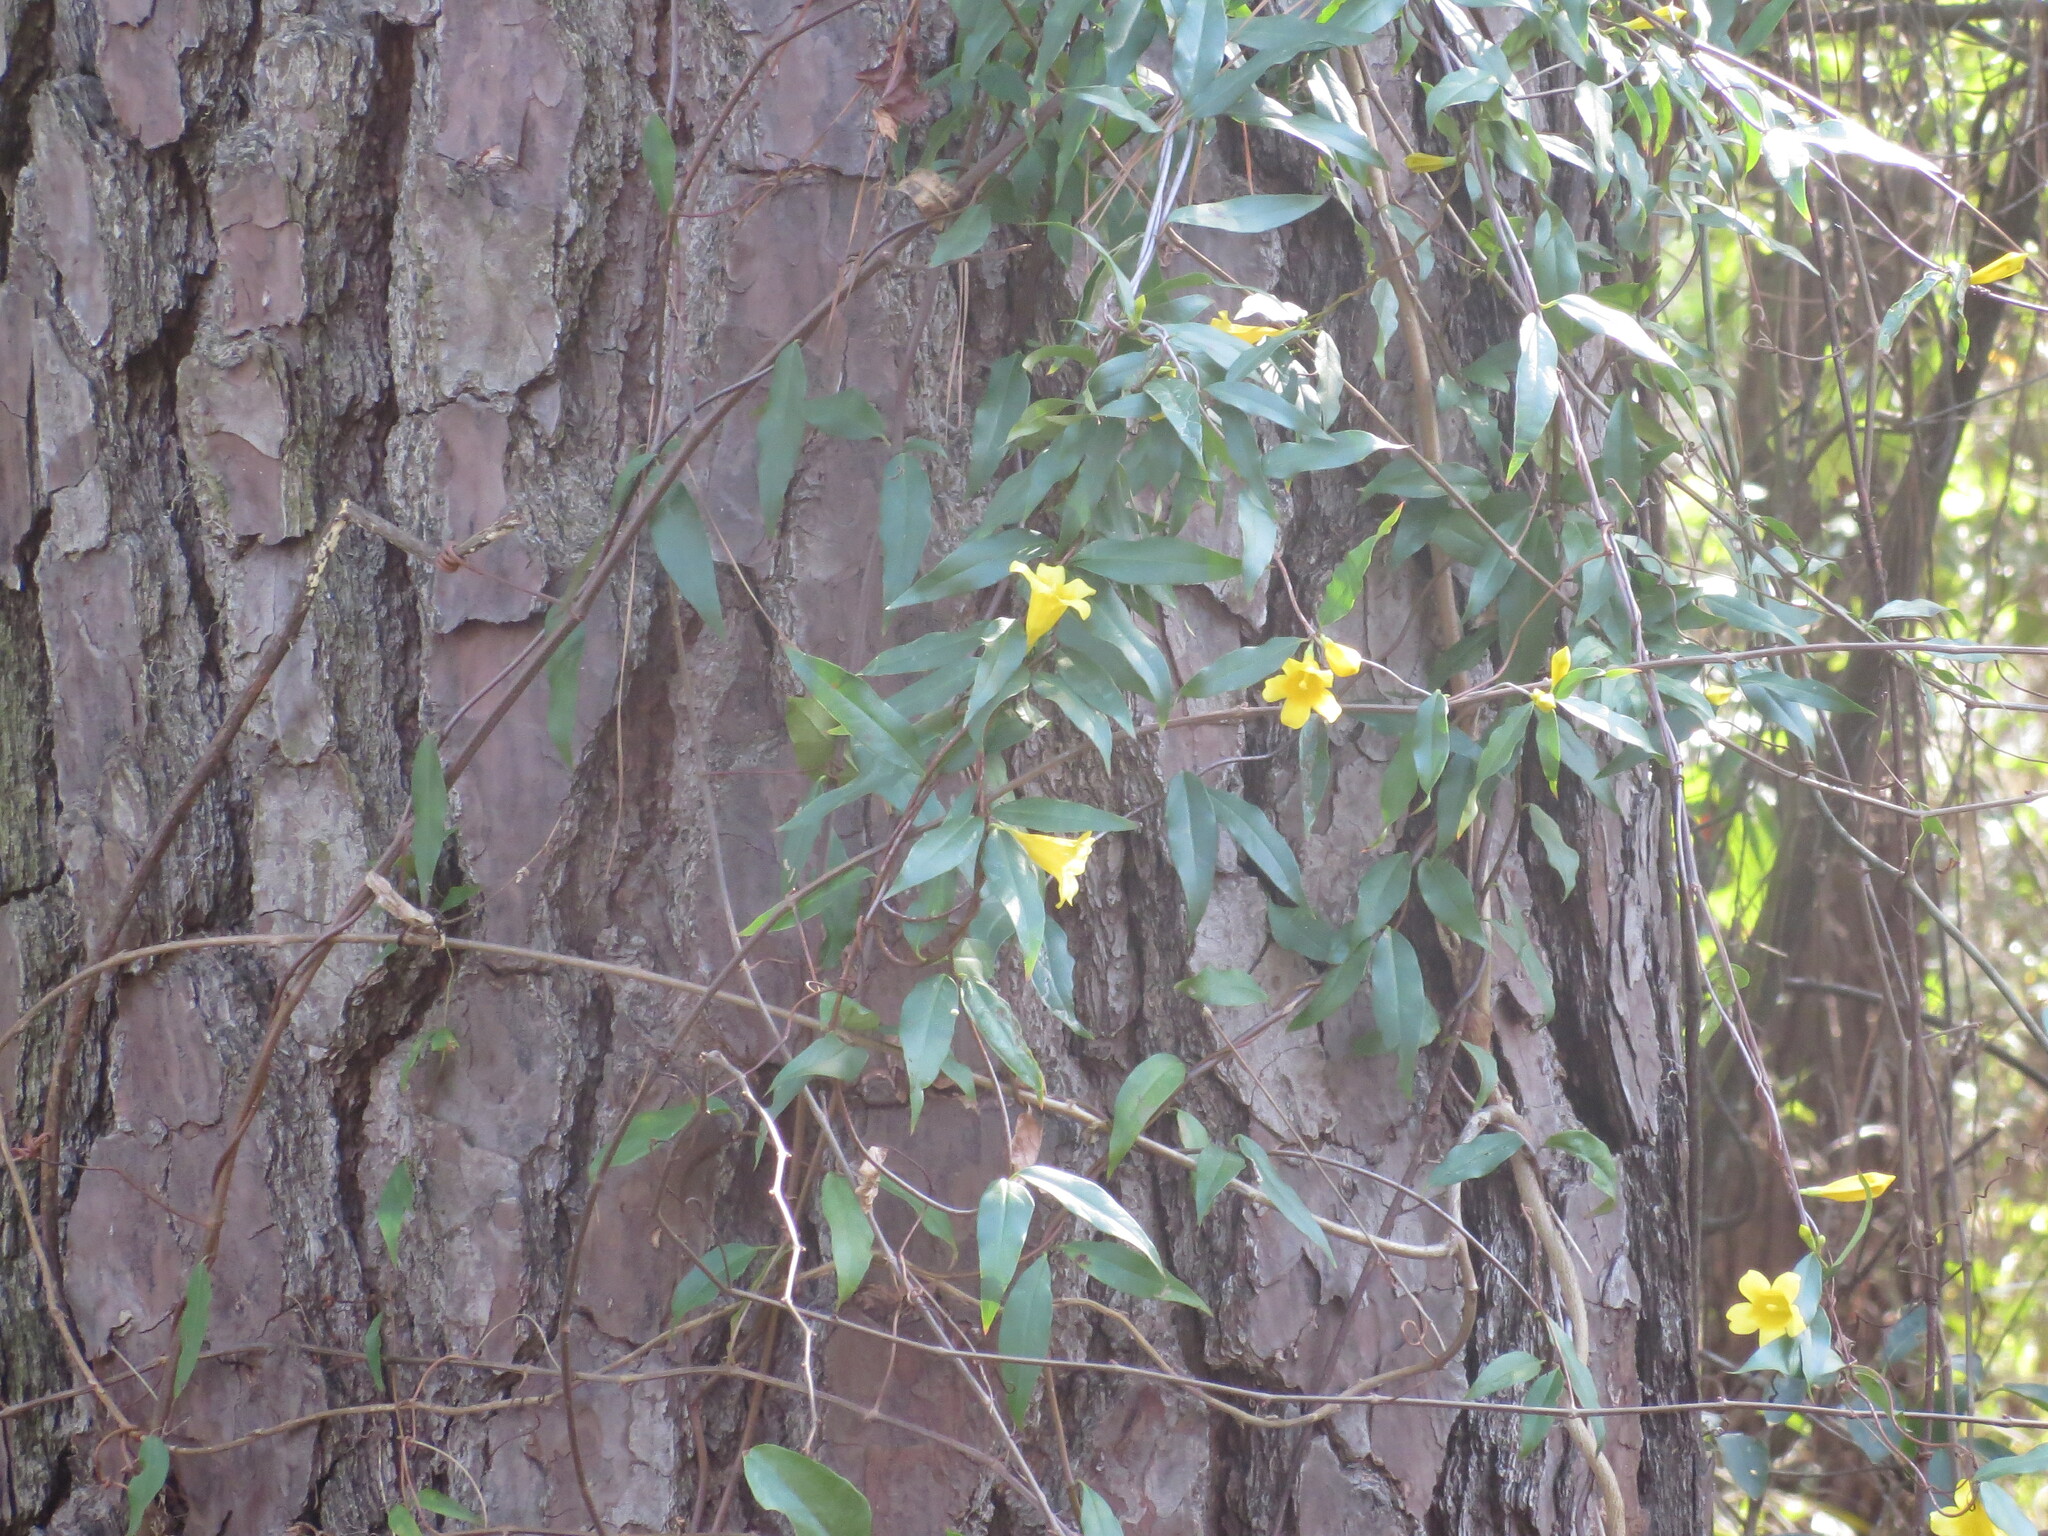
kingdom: Plantae
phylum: Tracheophyta
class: Magnoliopsida
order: Gentianales
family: Gelsemiaceae
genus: Gelsemium
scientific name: Gelsemium sempervirens
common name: Carolina-jasmine
